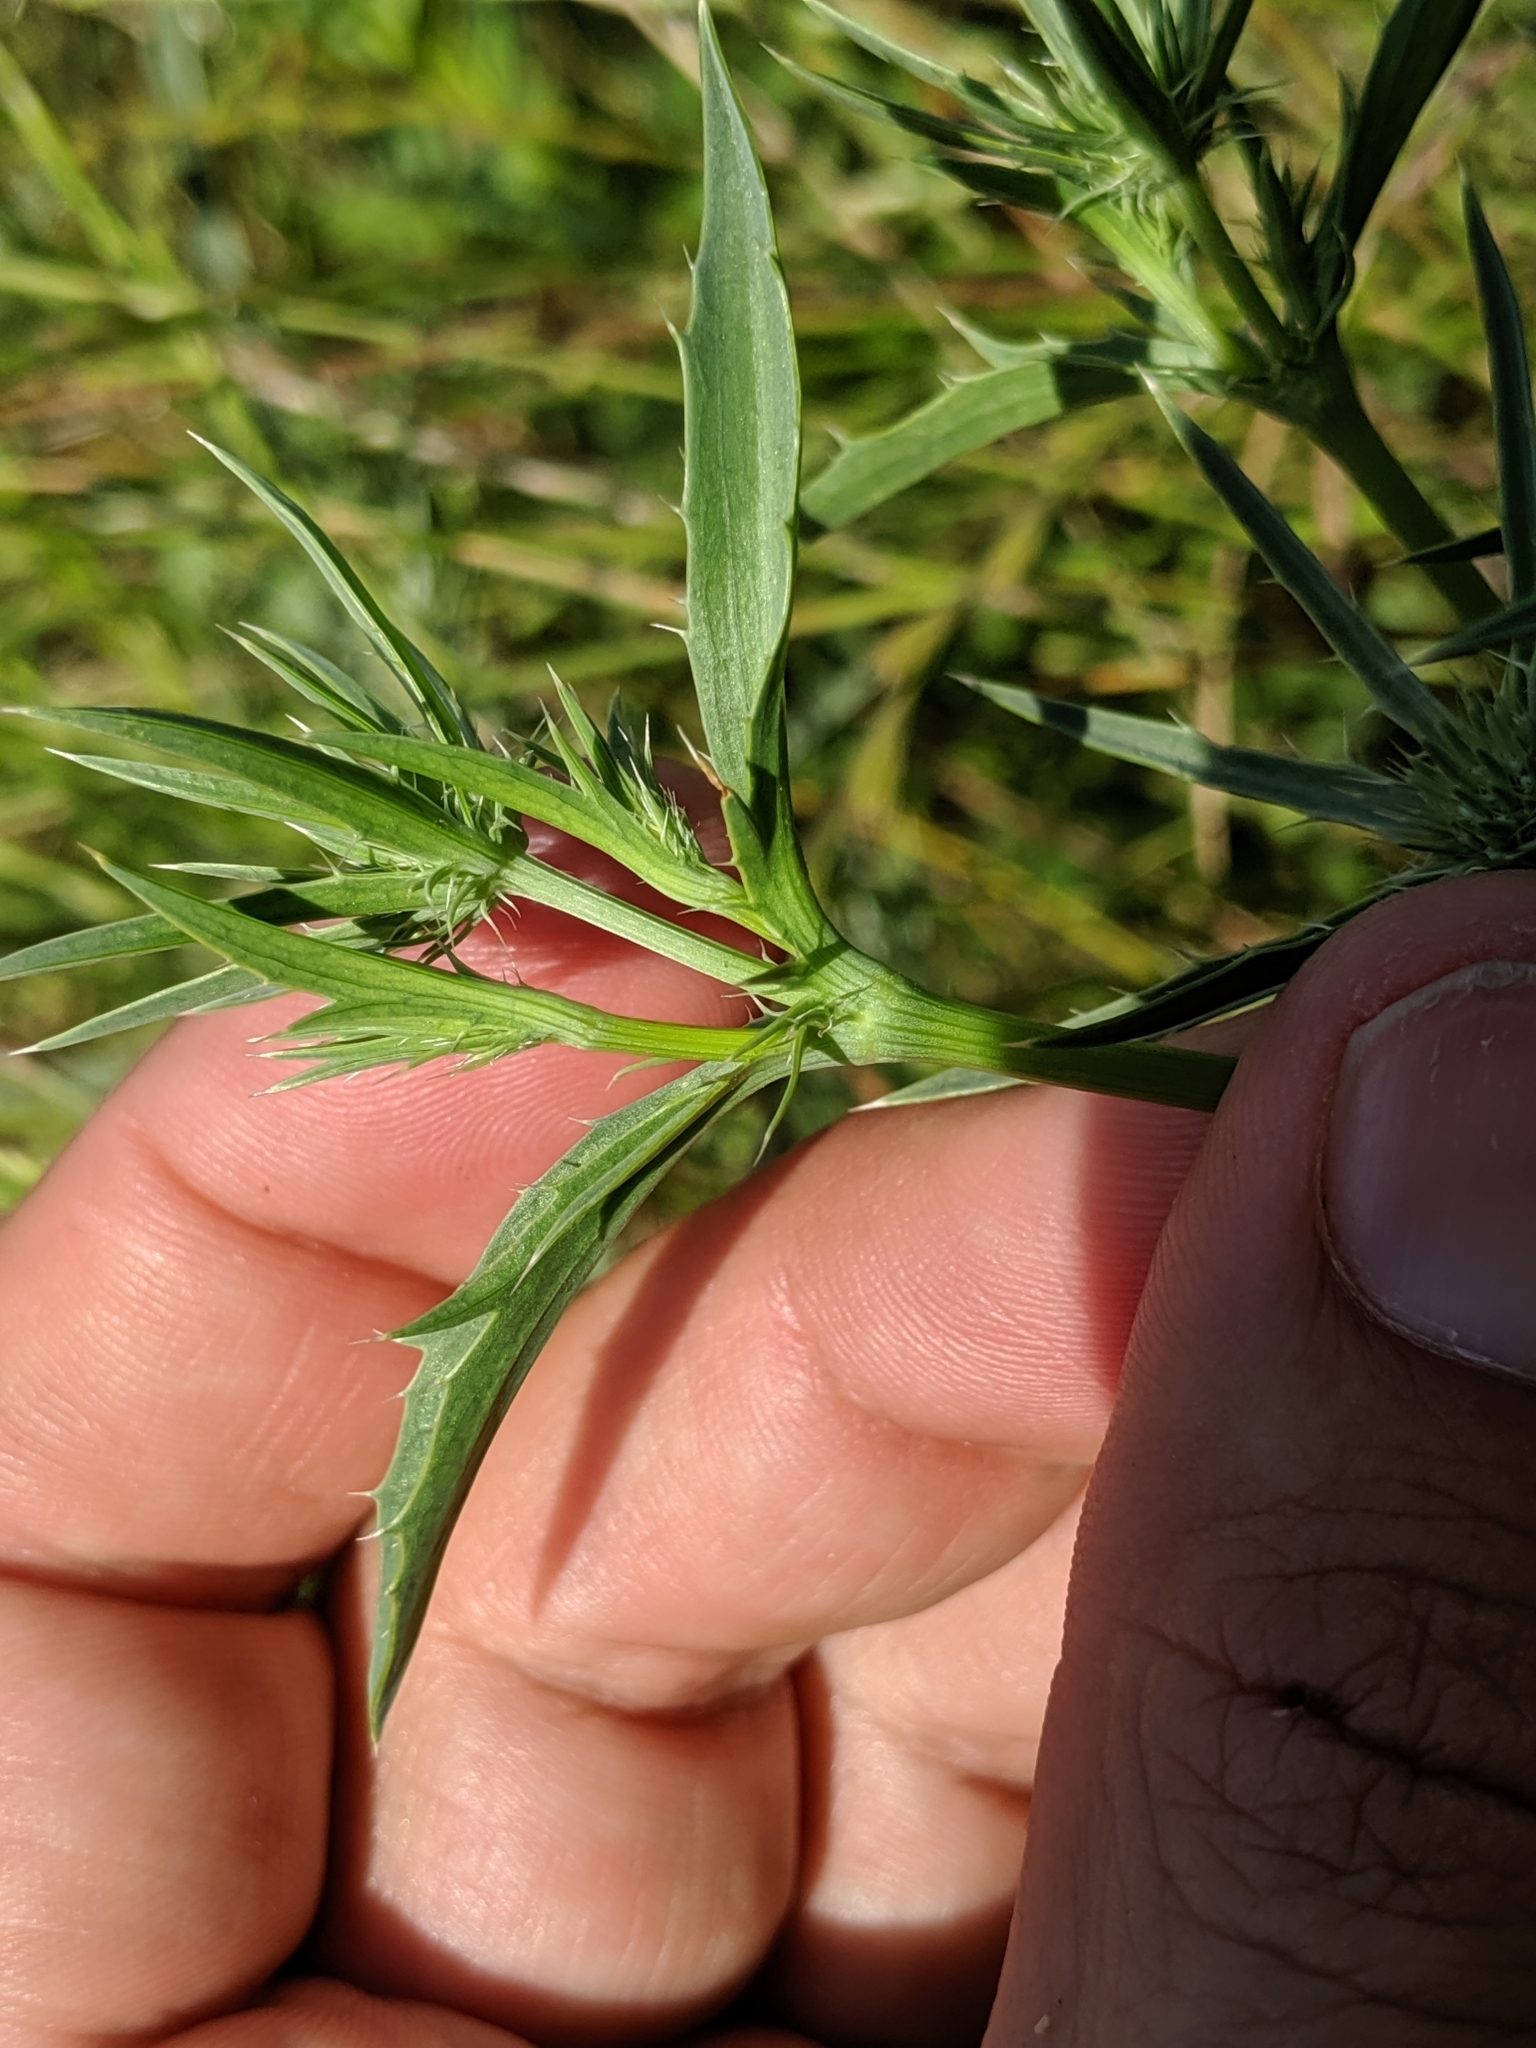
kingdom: Plantae
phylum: Tracheophyta
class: Magnoliopsida
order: Apiales
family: Apiaceae
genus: Eryngium
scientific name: Eryngium aristulatum
